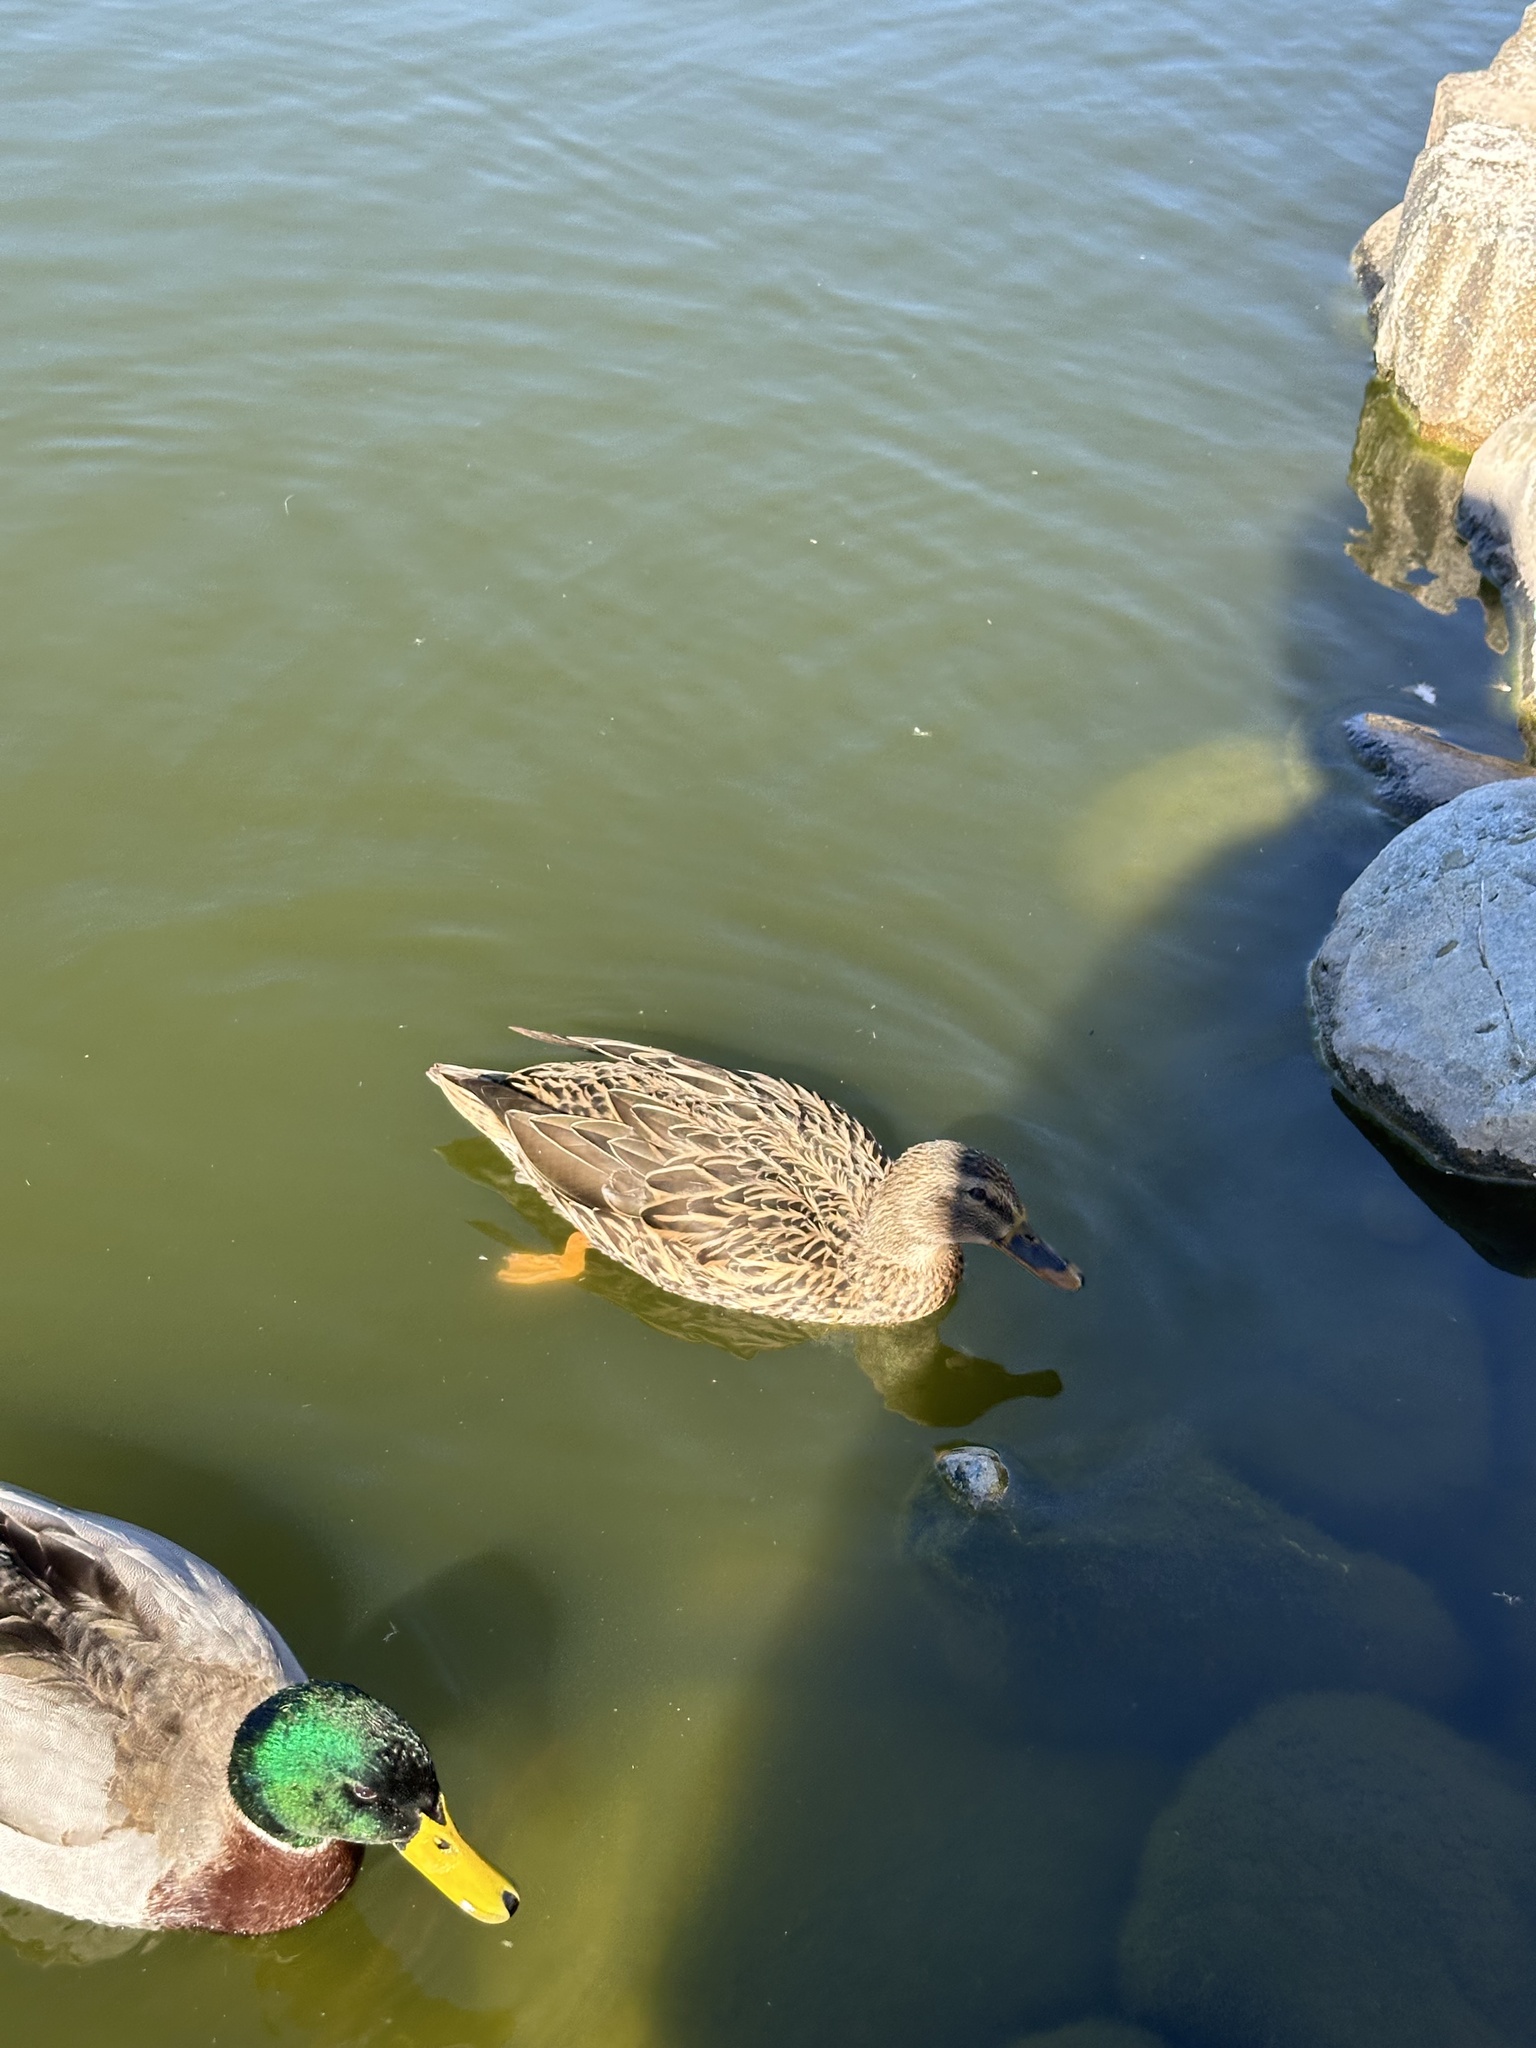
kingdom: Animalia
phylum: Chordata
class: Aves
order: Anseriformes
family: Anatidae
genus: Anas
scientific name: Anas platyrhynchos
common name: Mallard
